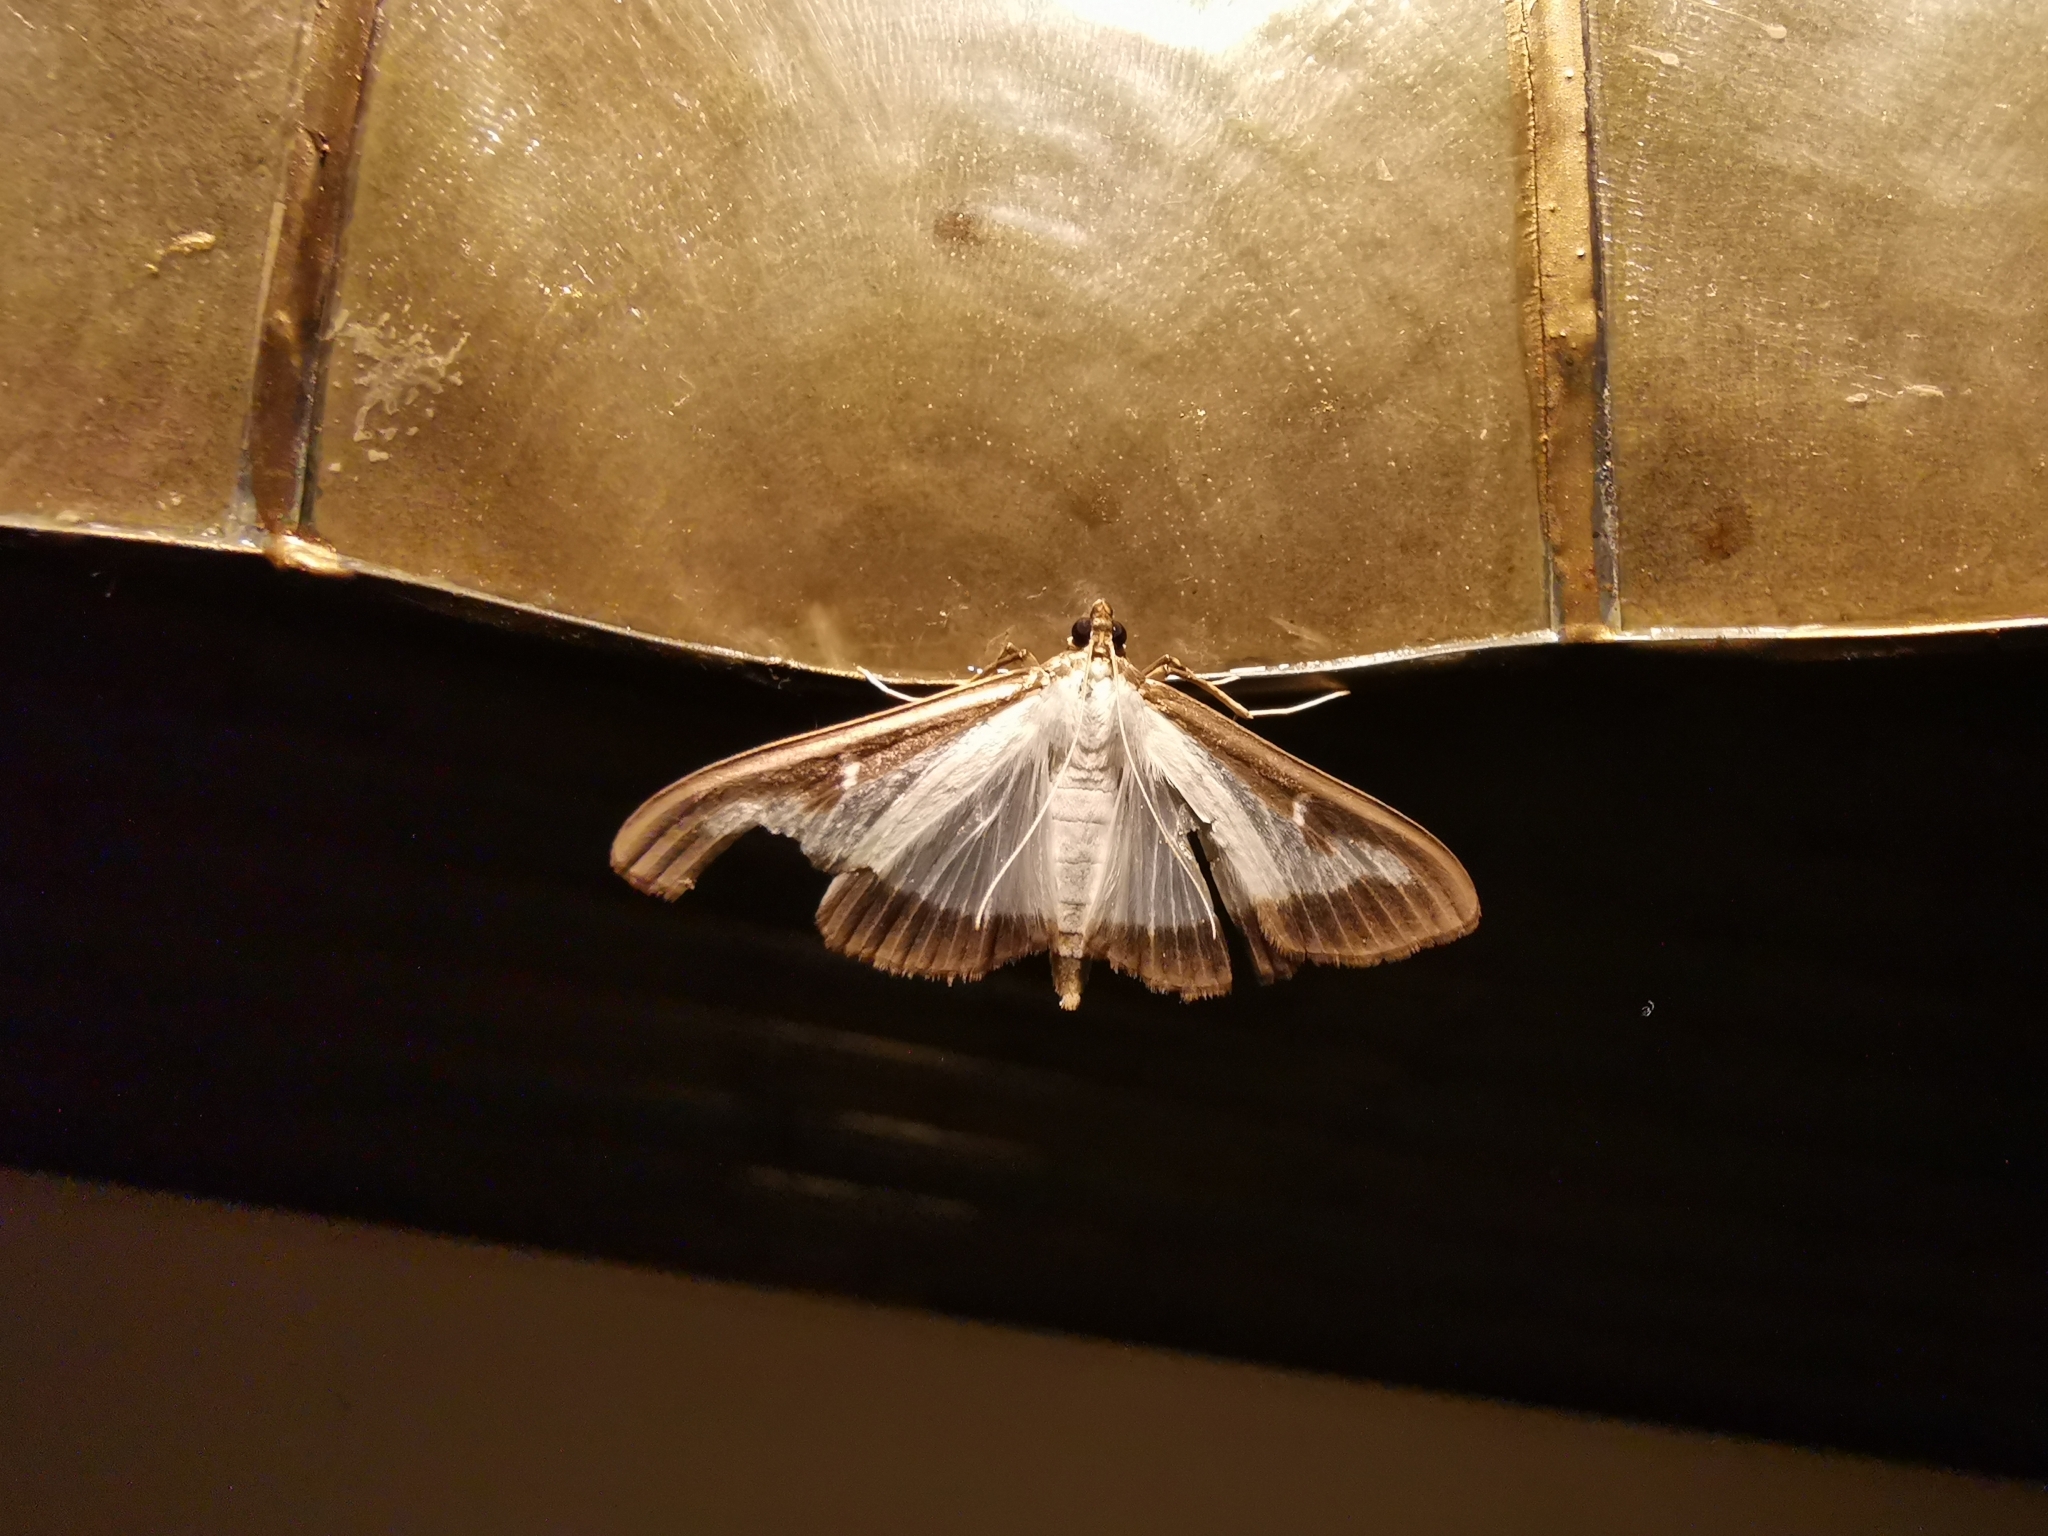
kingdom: Animalia
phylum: Arthropoda
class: Insecta
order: Lepidoptera
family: Crambidae
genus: Cydalima
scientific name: Cydalima perspectalis
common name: Box tree moth
